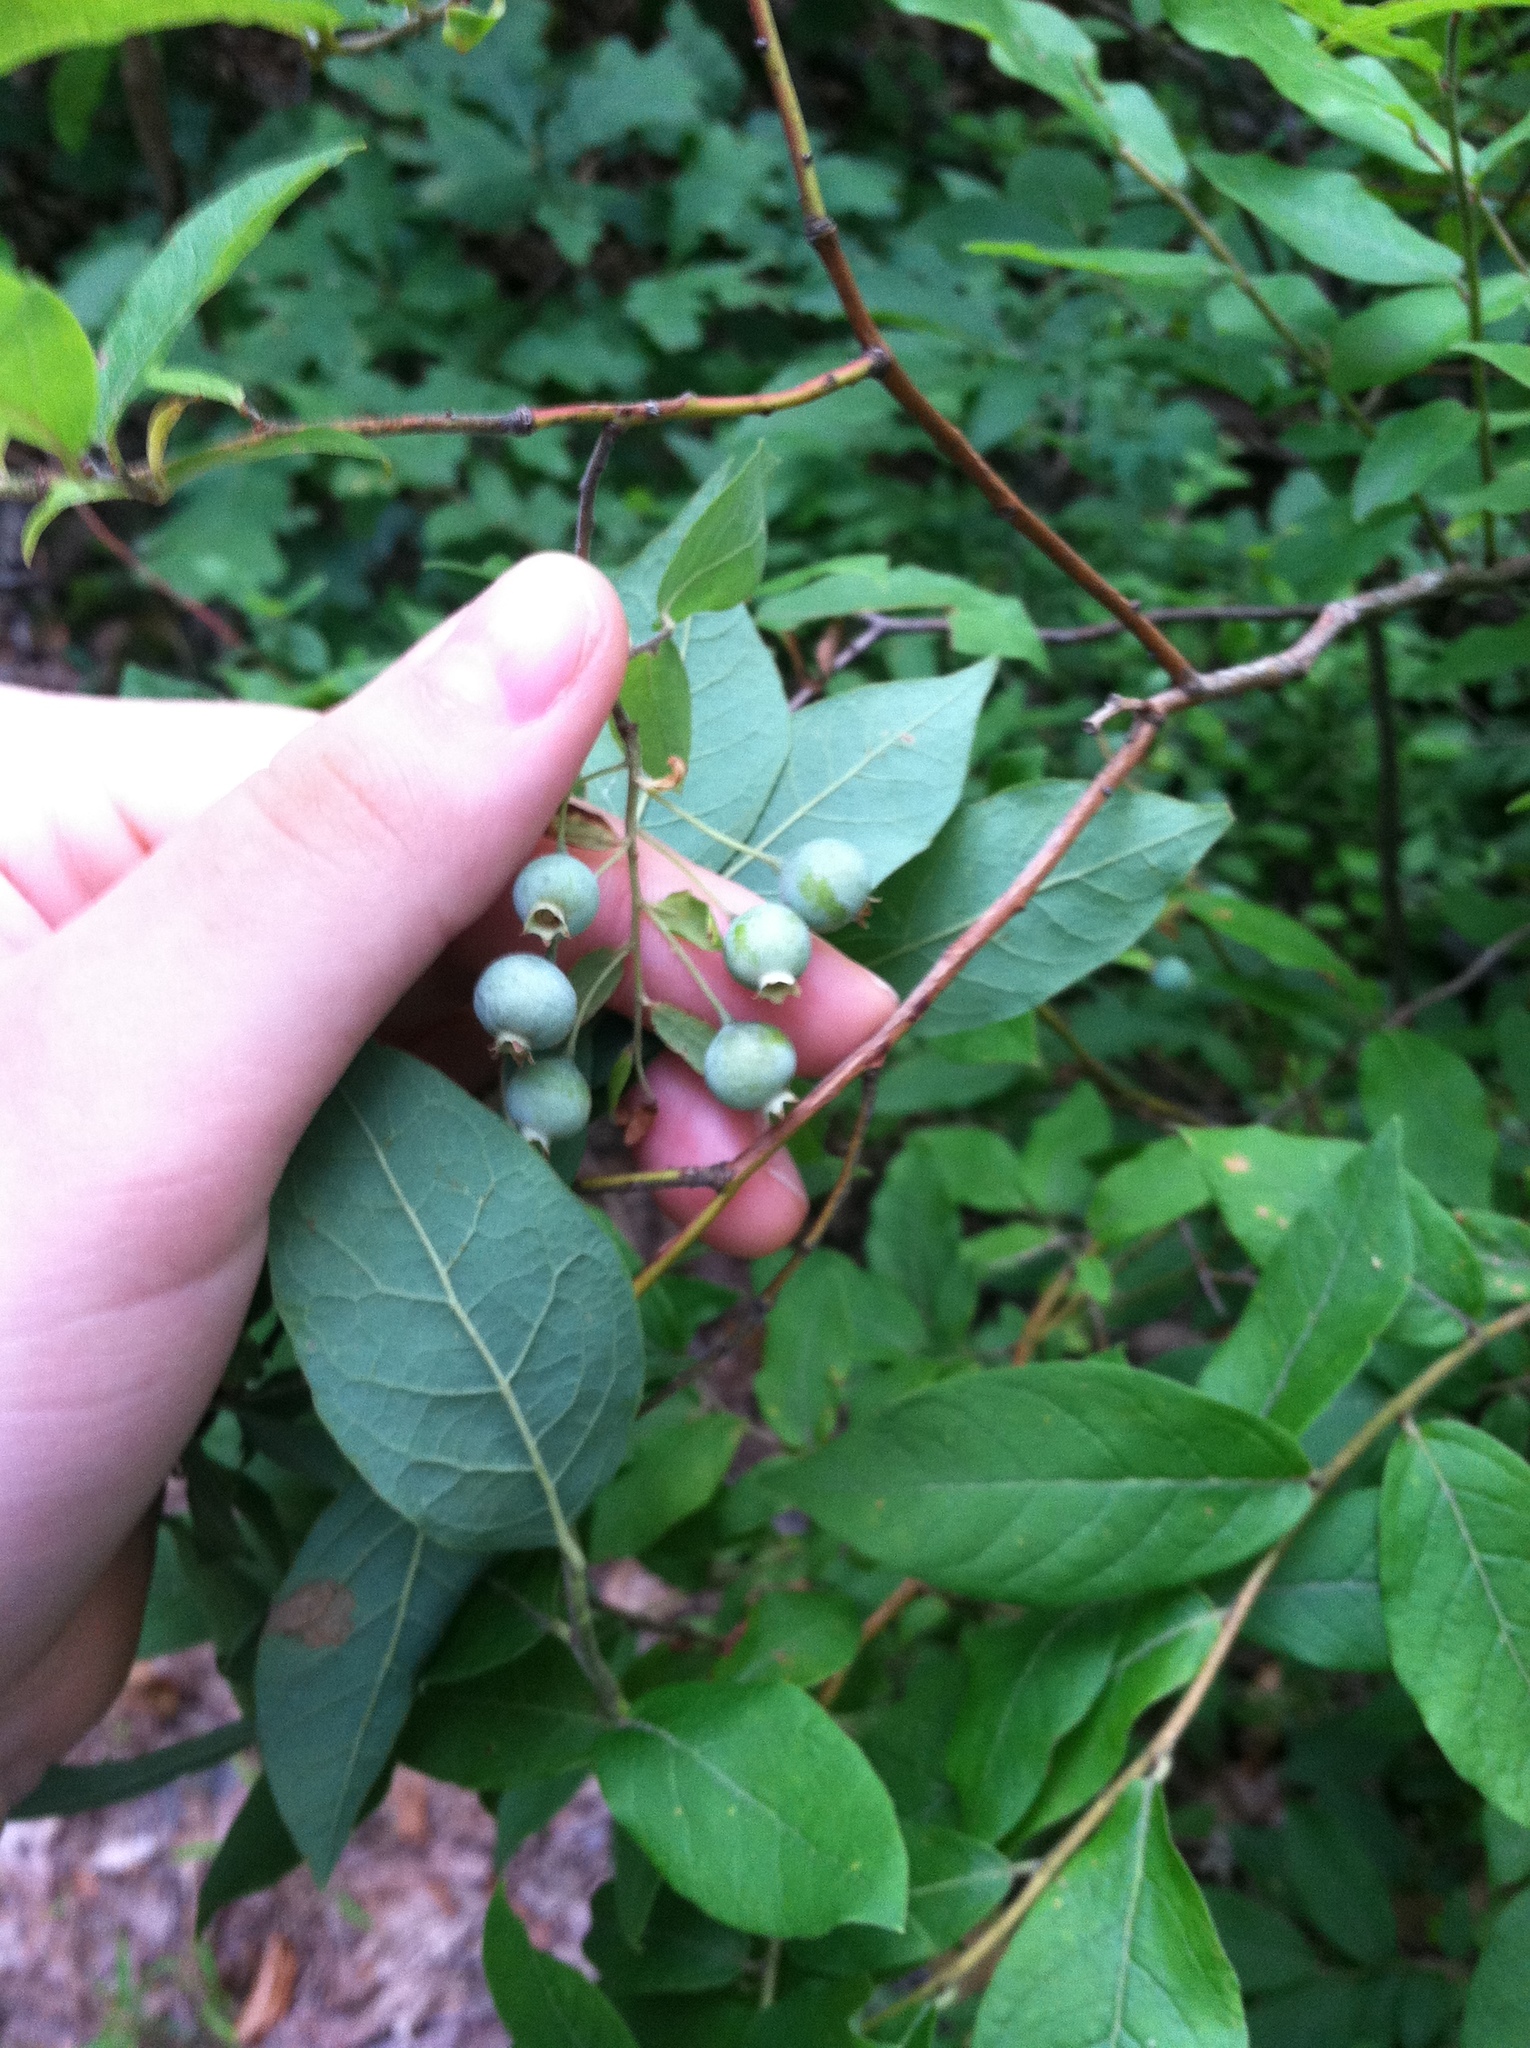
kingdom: Plantae
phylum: Tracheophyta
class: Magnoliopsida
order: Ericales
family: Ericaceae
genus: Vaccinium
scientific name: Vaccinium stamineum
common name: Deerberry
